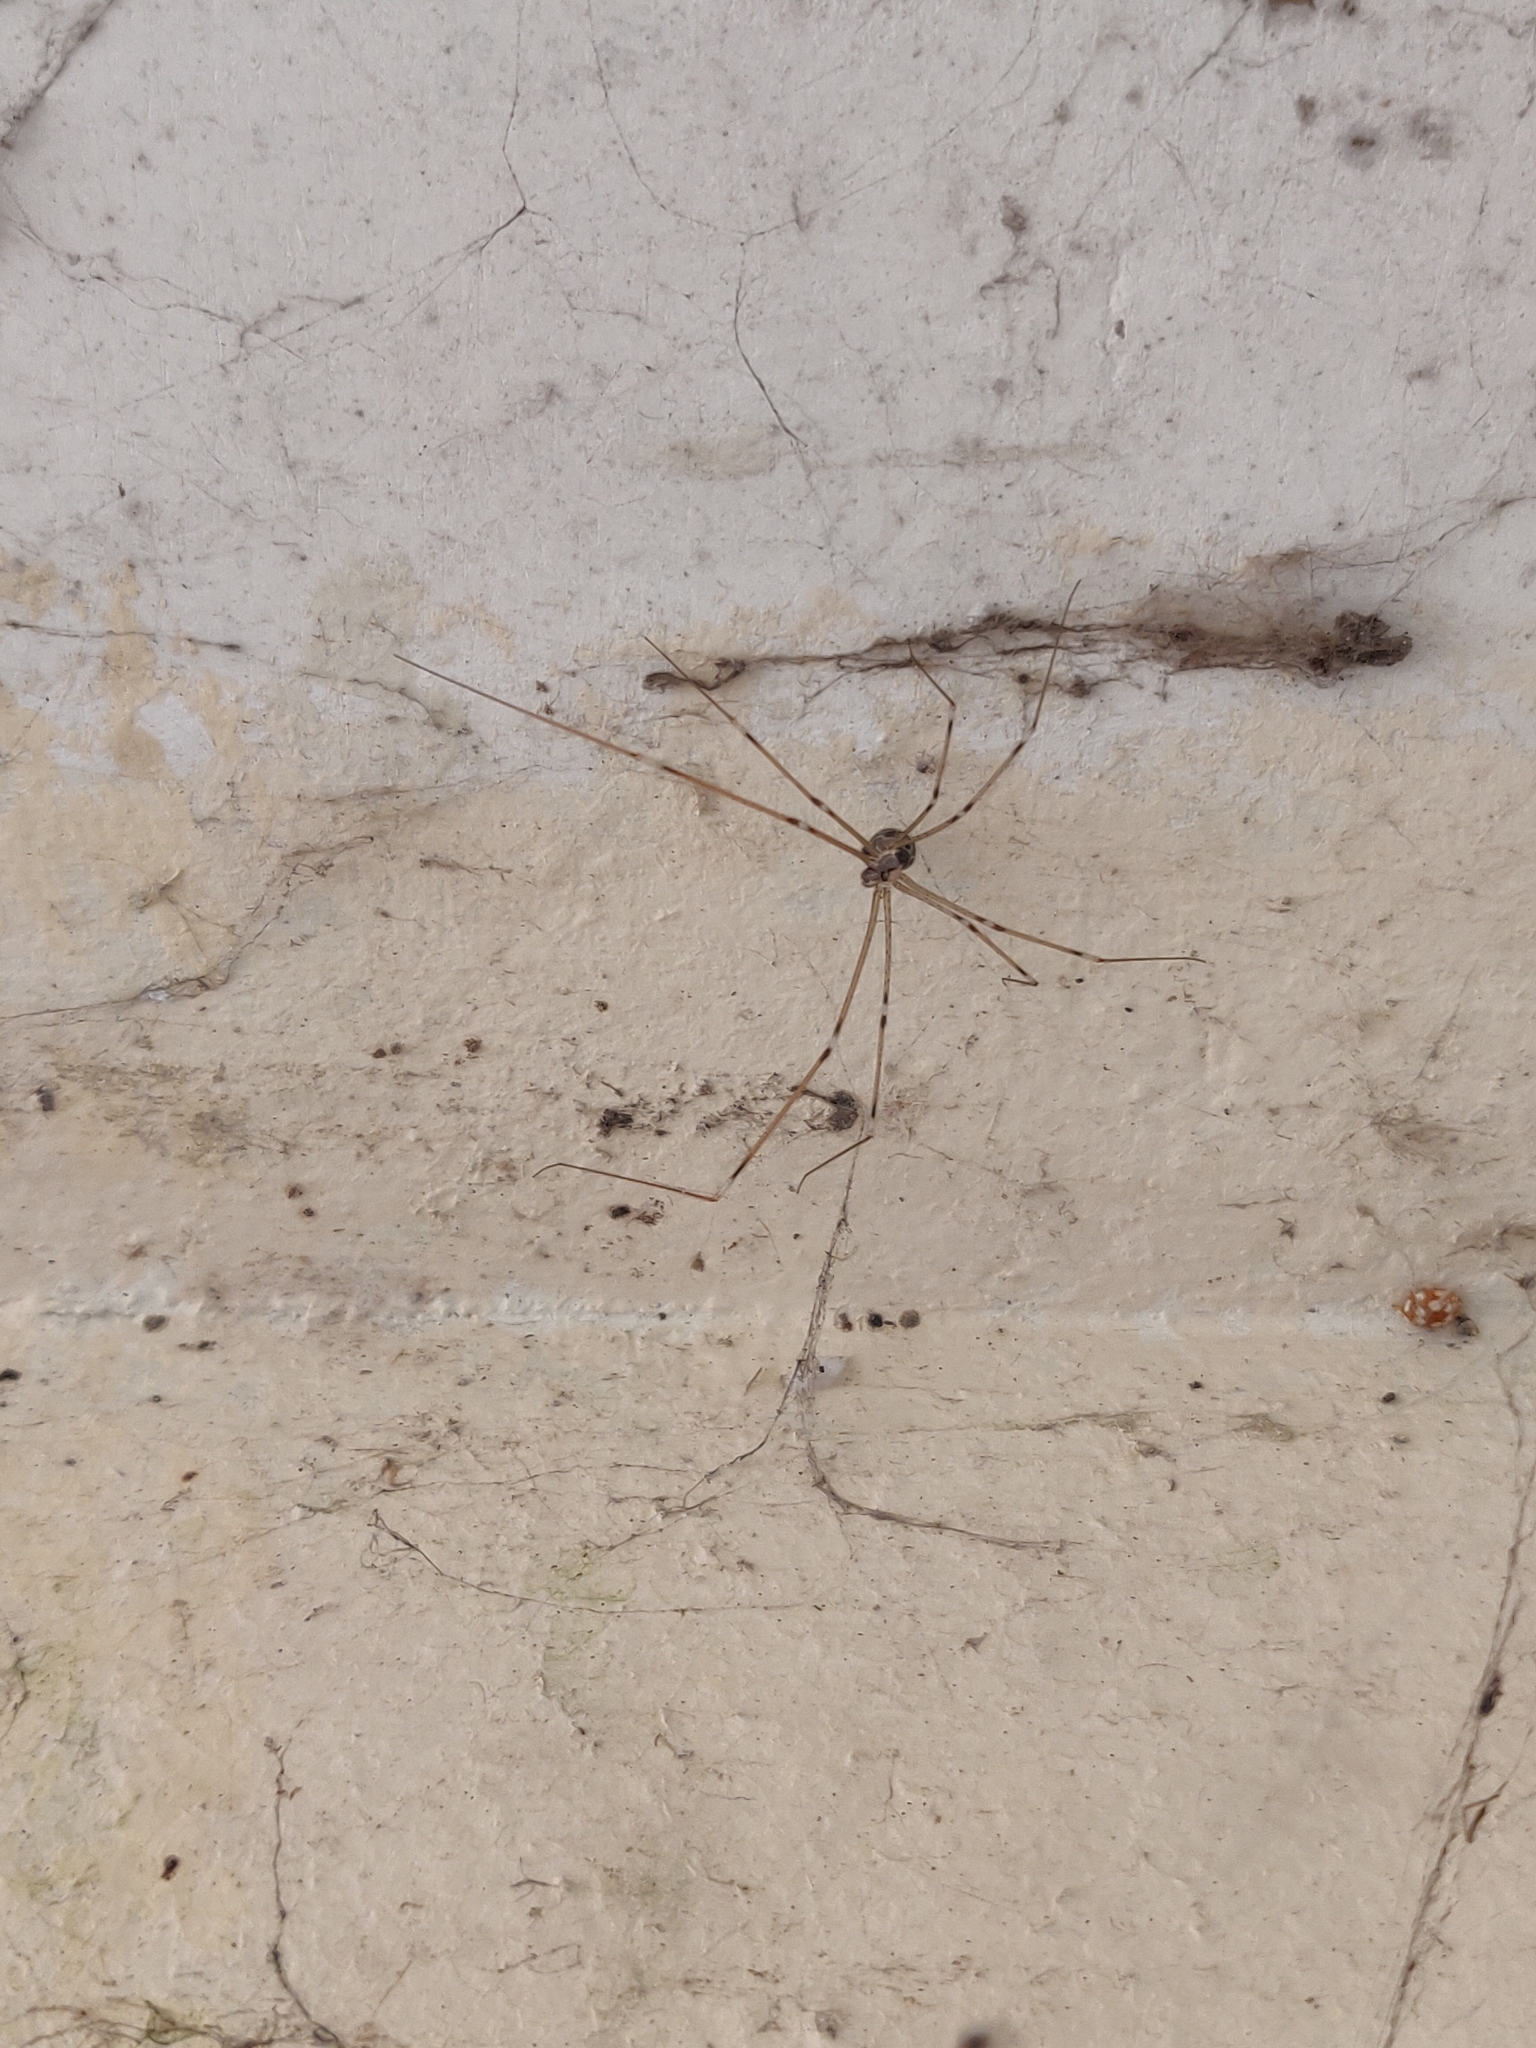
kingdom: Animalia
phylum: Arthropoda
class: Arachnida
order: Araneae
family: Pholcidae
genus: Holocnemus
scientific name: Holocnemus pluchei
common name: Marbled cellar spider
